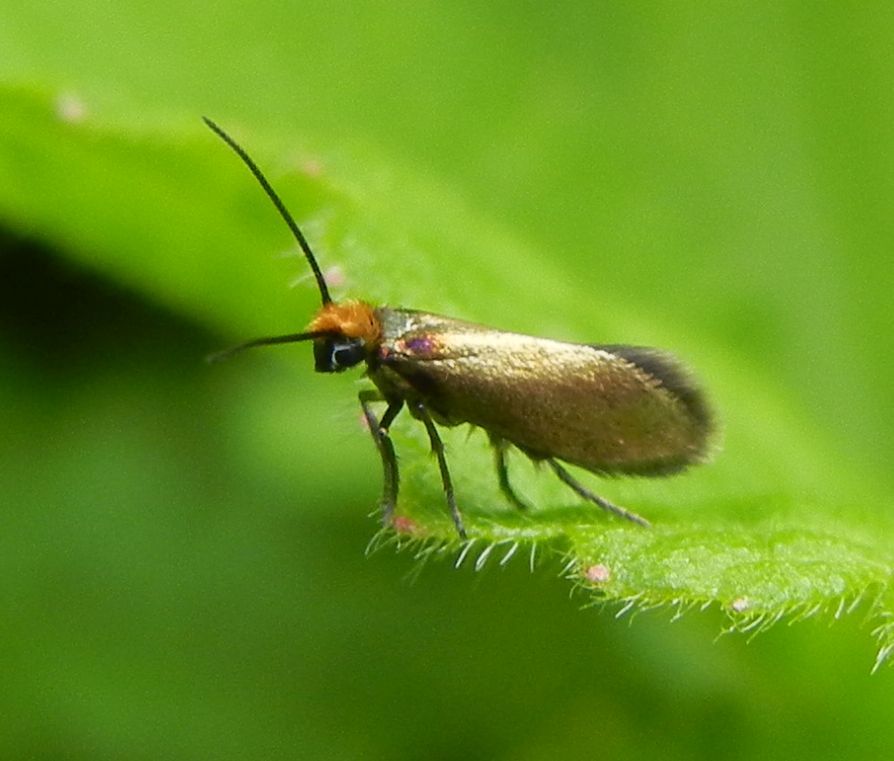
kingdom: Animalia
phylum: Arthropoda
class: Insecta
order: Lepidoptera
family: Micropterigidae
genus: Micropterix
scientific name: Micropterix calthella
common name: Plain gold
